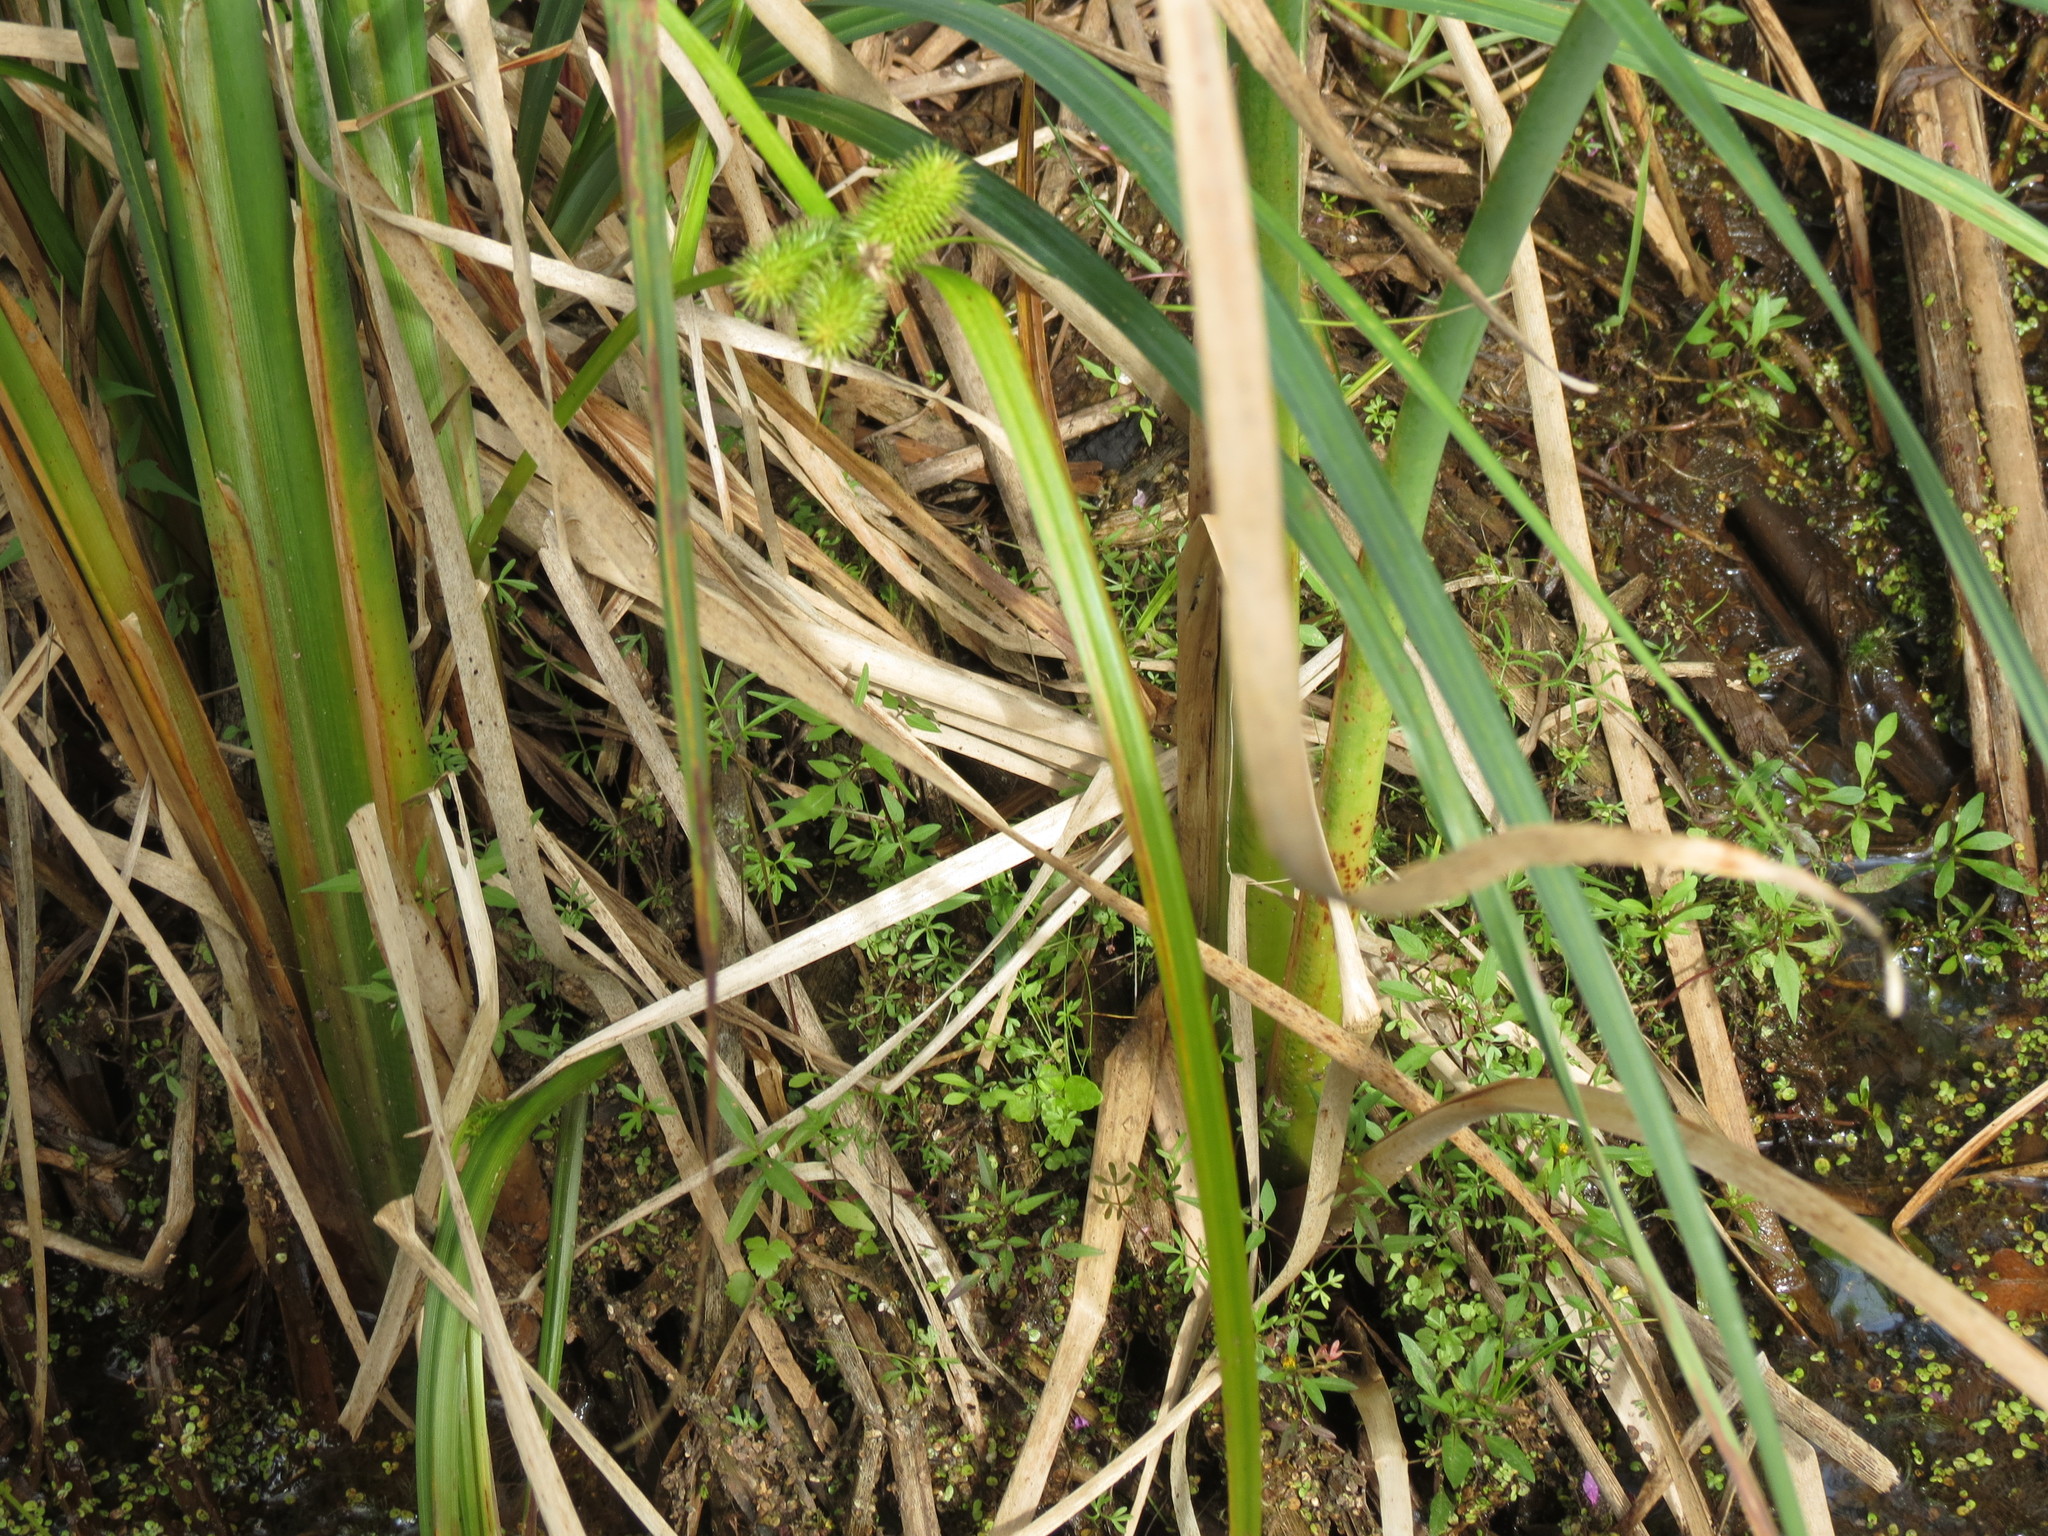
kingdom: Plantae
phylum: Tracheophyta
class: Liliopsida
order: Poales
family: Cyperaceae
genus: Carex
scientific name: Carex comosa
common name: Bristly sedge
